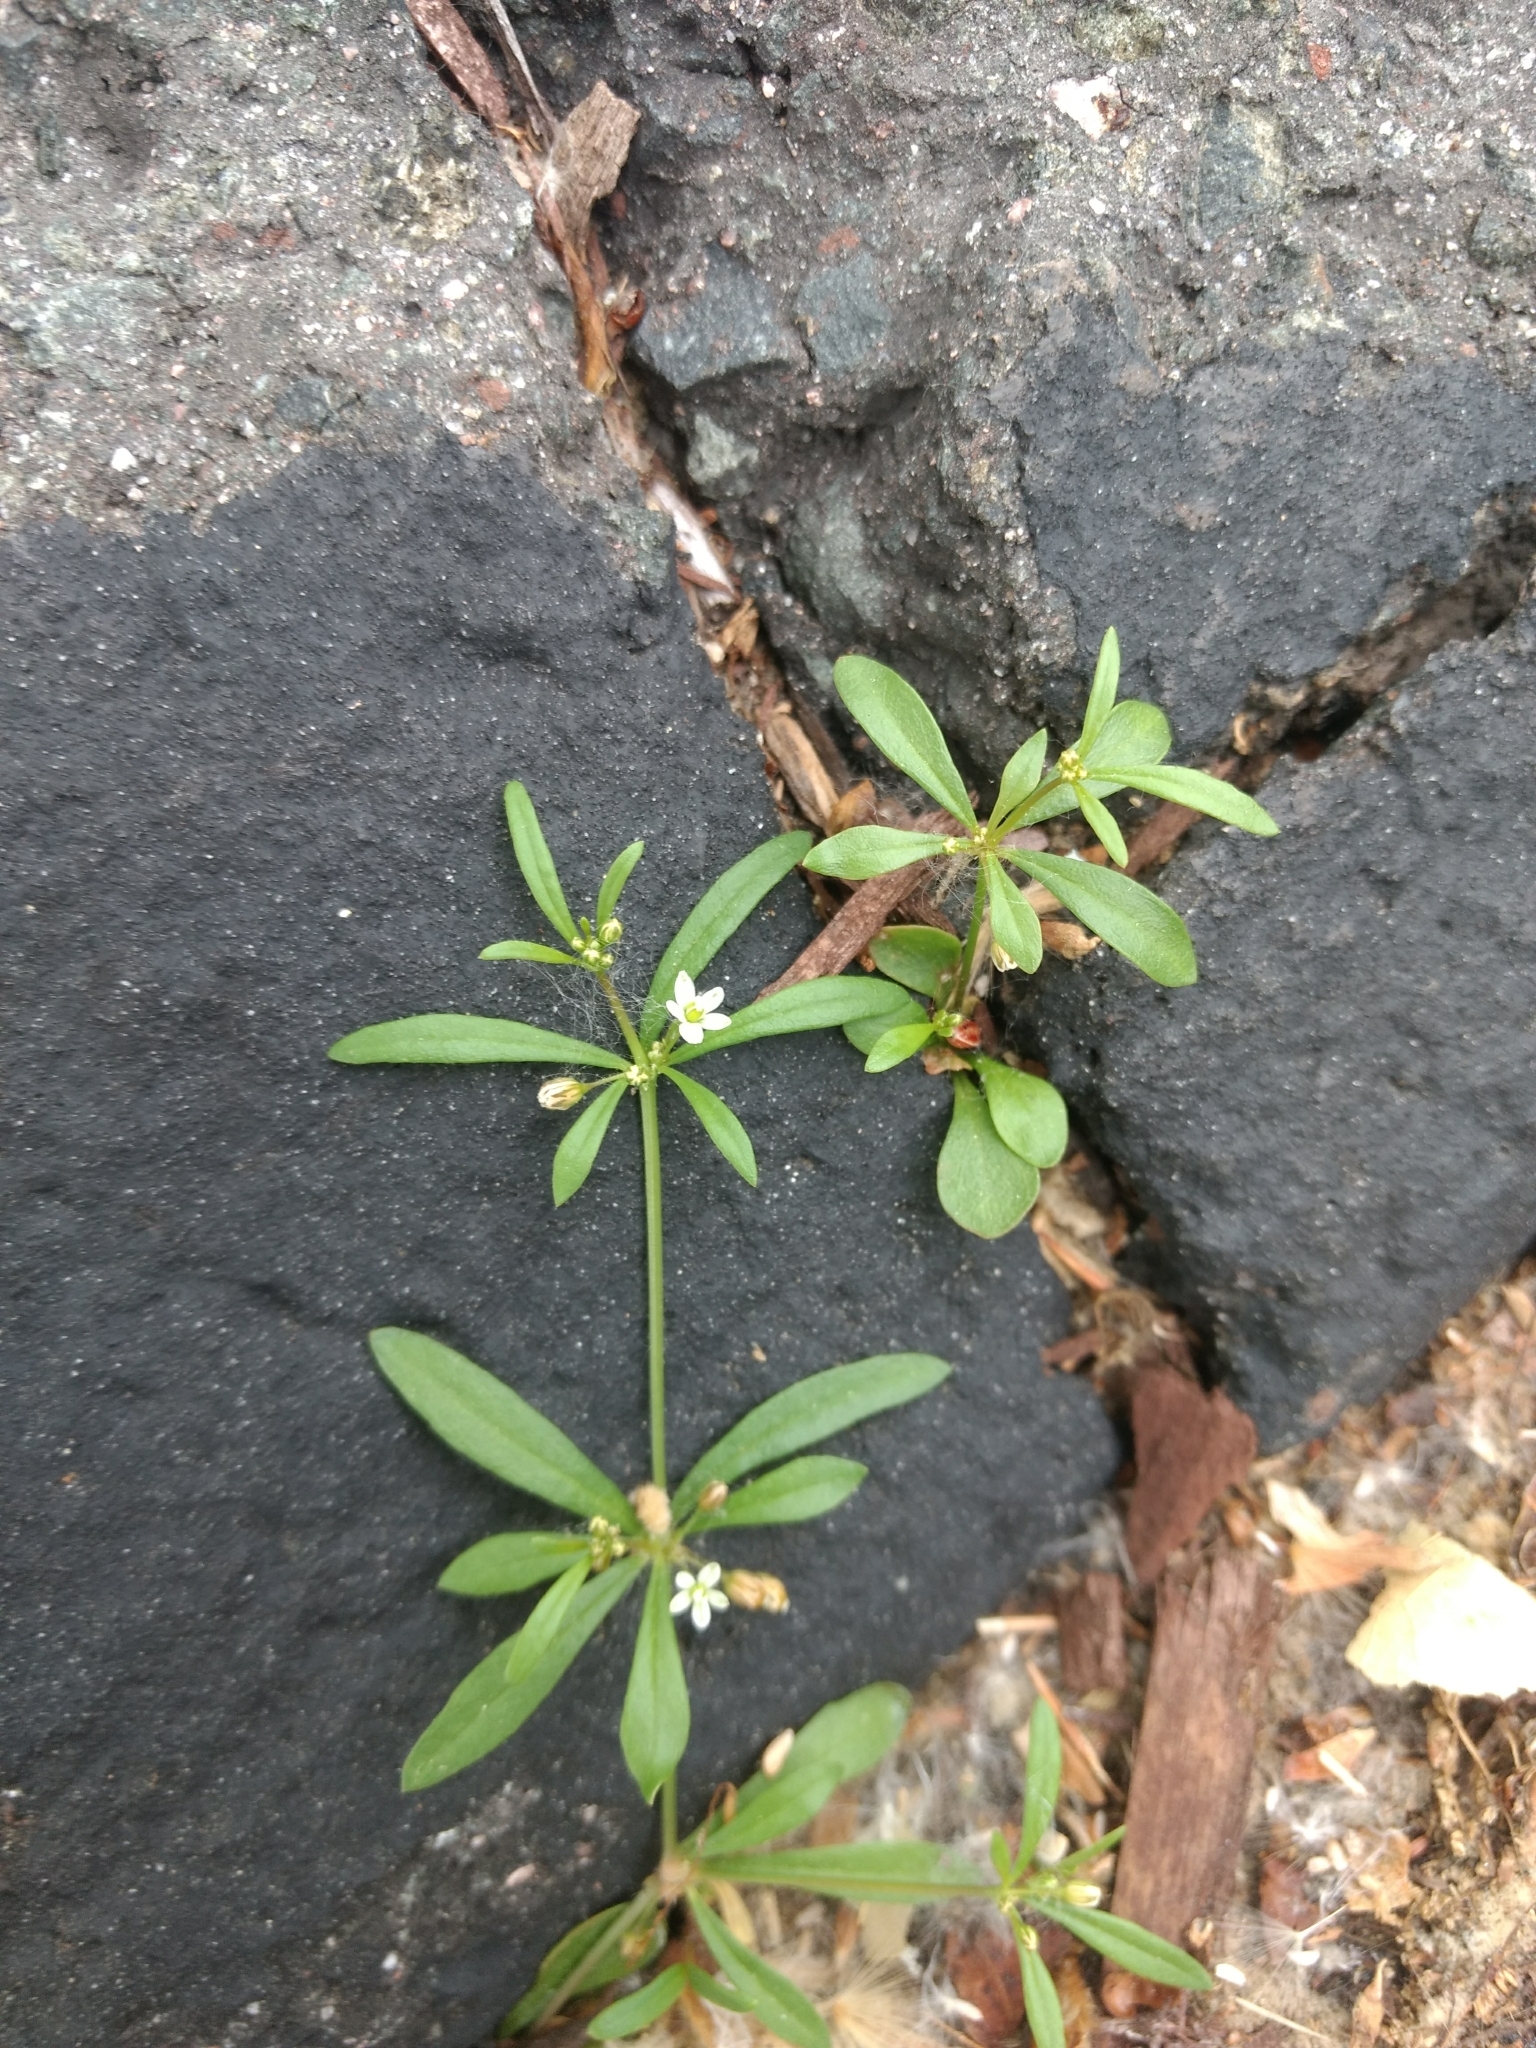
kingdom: Plantae
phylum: Tracheophyta
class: Magnoliopsida
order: Caryophyllales
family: Molluginaceae
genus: Mollugo
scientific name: Mollugo verticillata
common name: Green carpetweed
